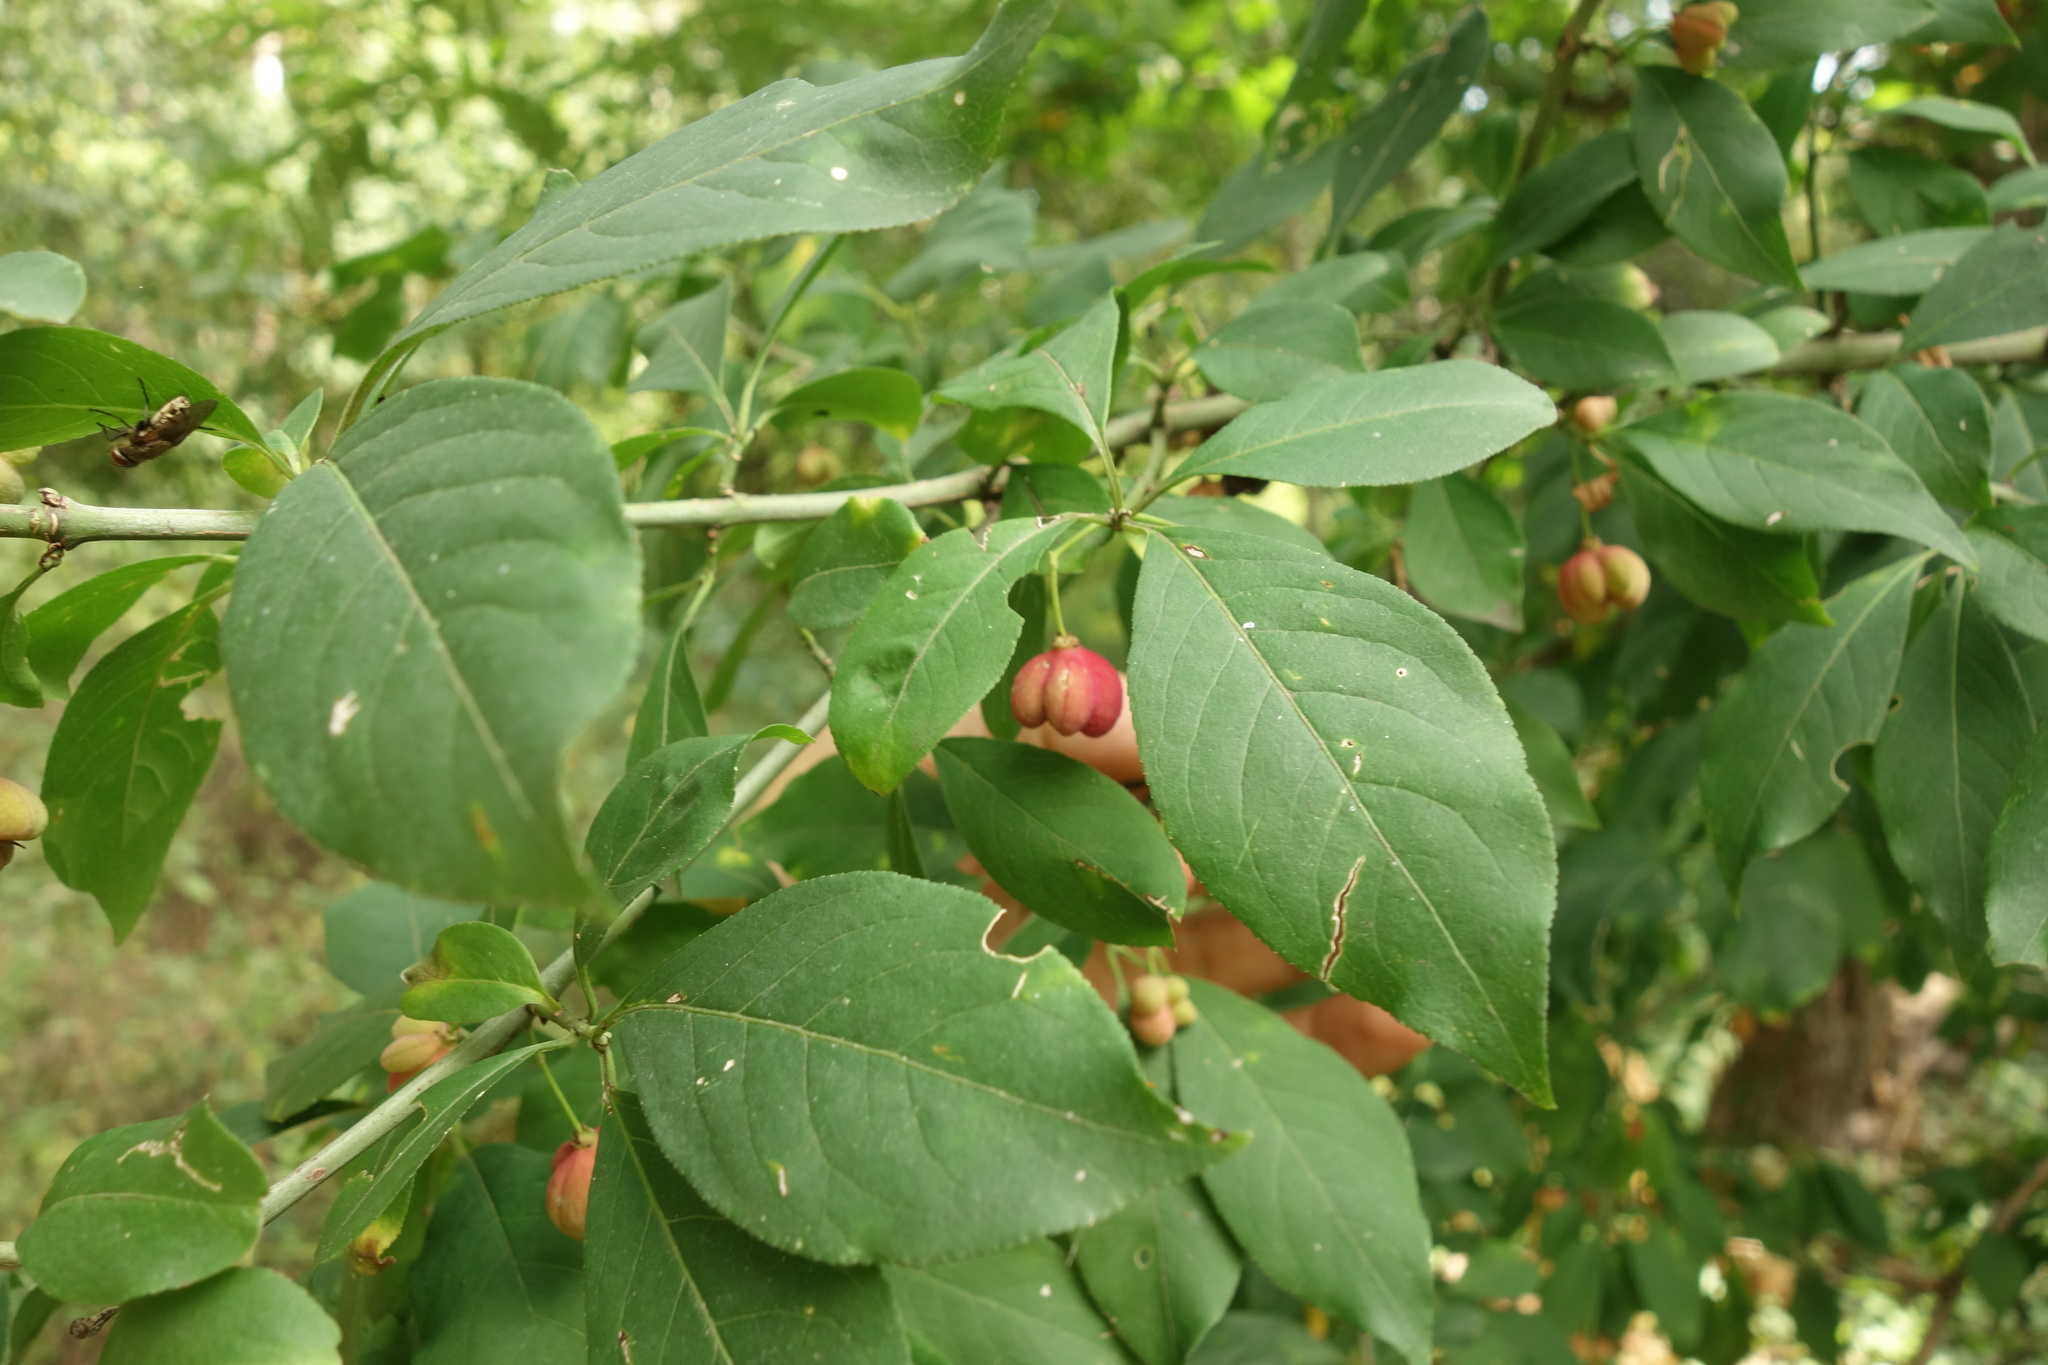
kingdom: Plantae
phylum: Tracheophyta
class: Magnoliopsida
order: Celastrales
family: Celastraceae
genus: Euonymus
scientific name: Euonymus europaeus
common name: Spindle
